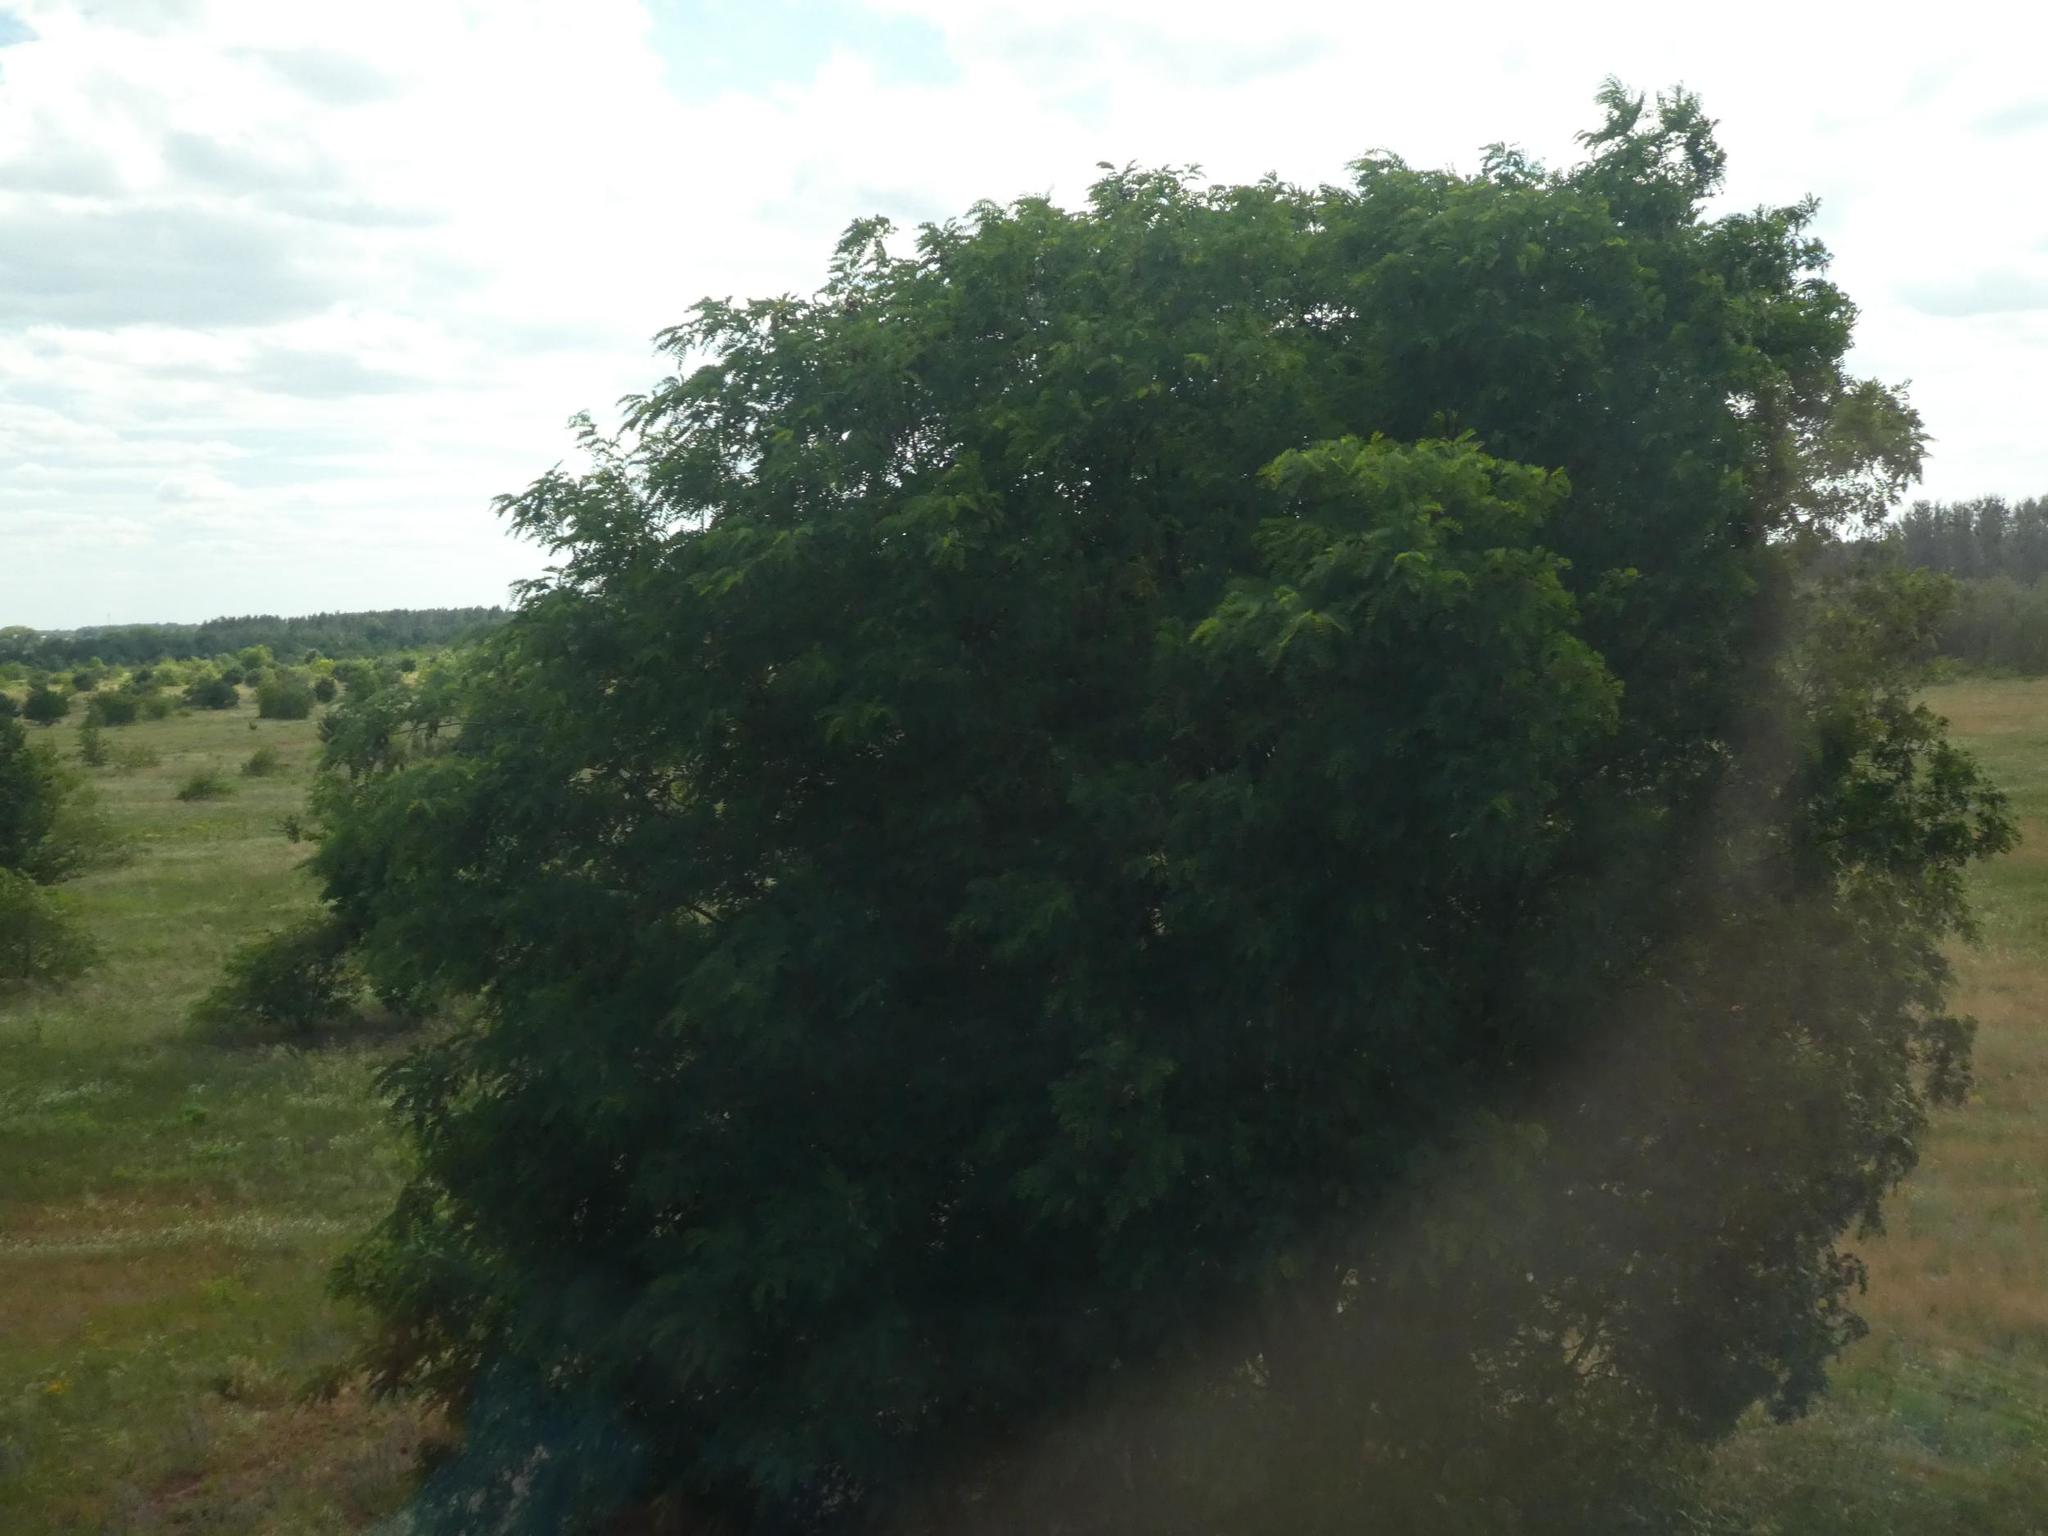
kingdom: Plantae
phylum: Tracheophyta
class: Magnoliopsida
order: Fabales
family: Fabaceae
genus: Robinia
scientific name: Robinia pseudoacacia
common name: Black locust
